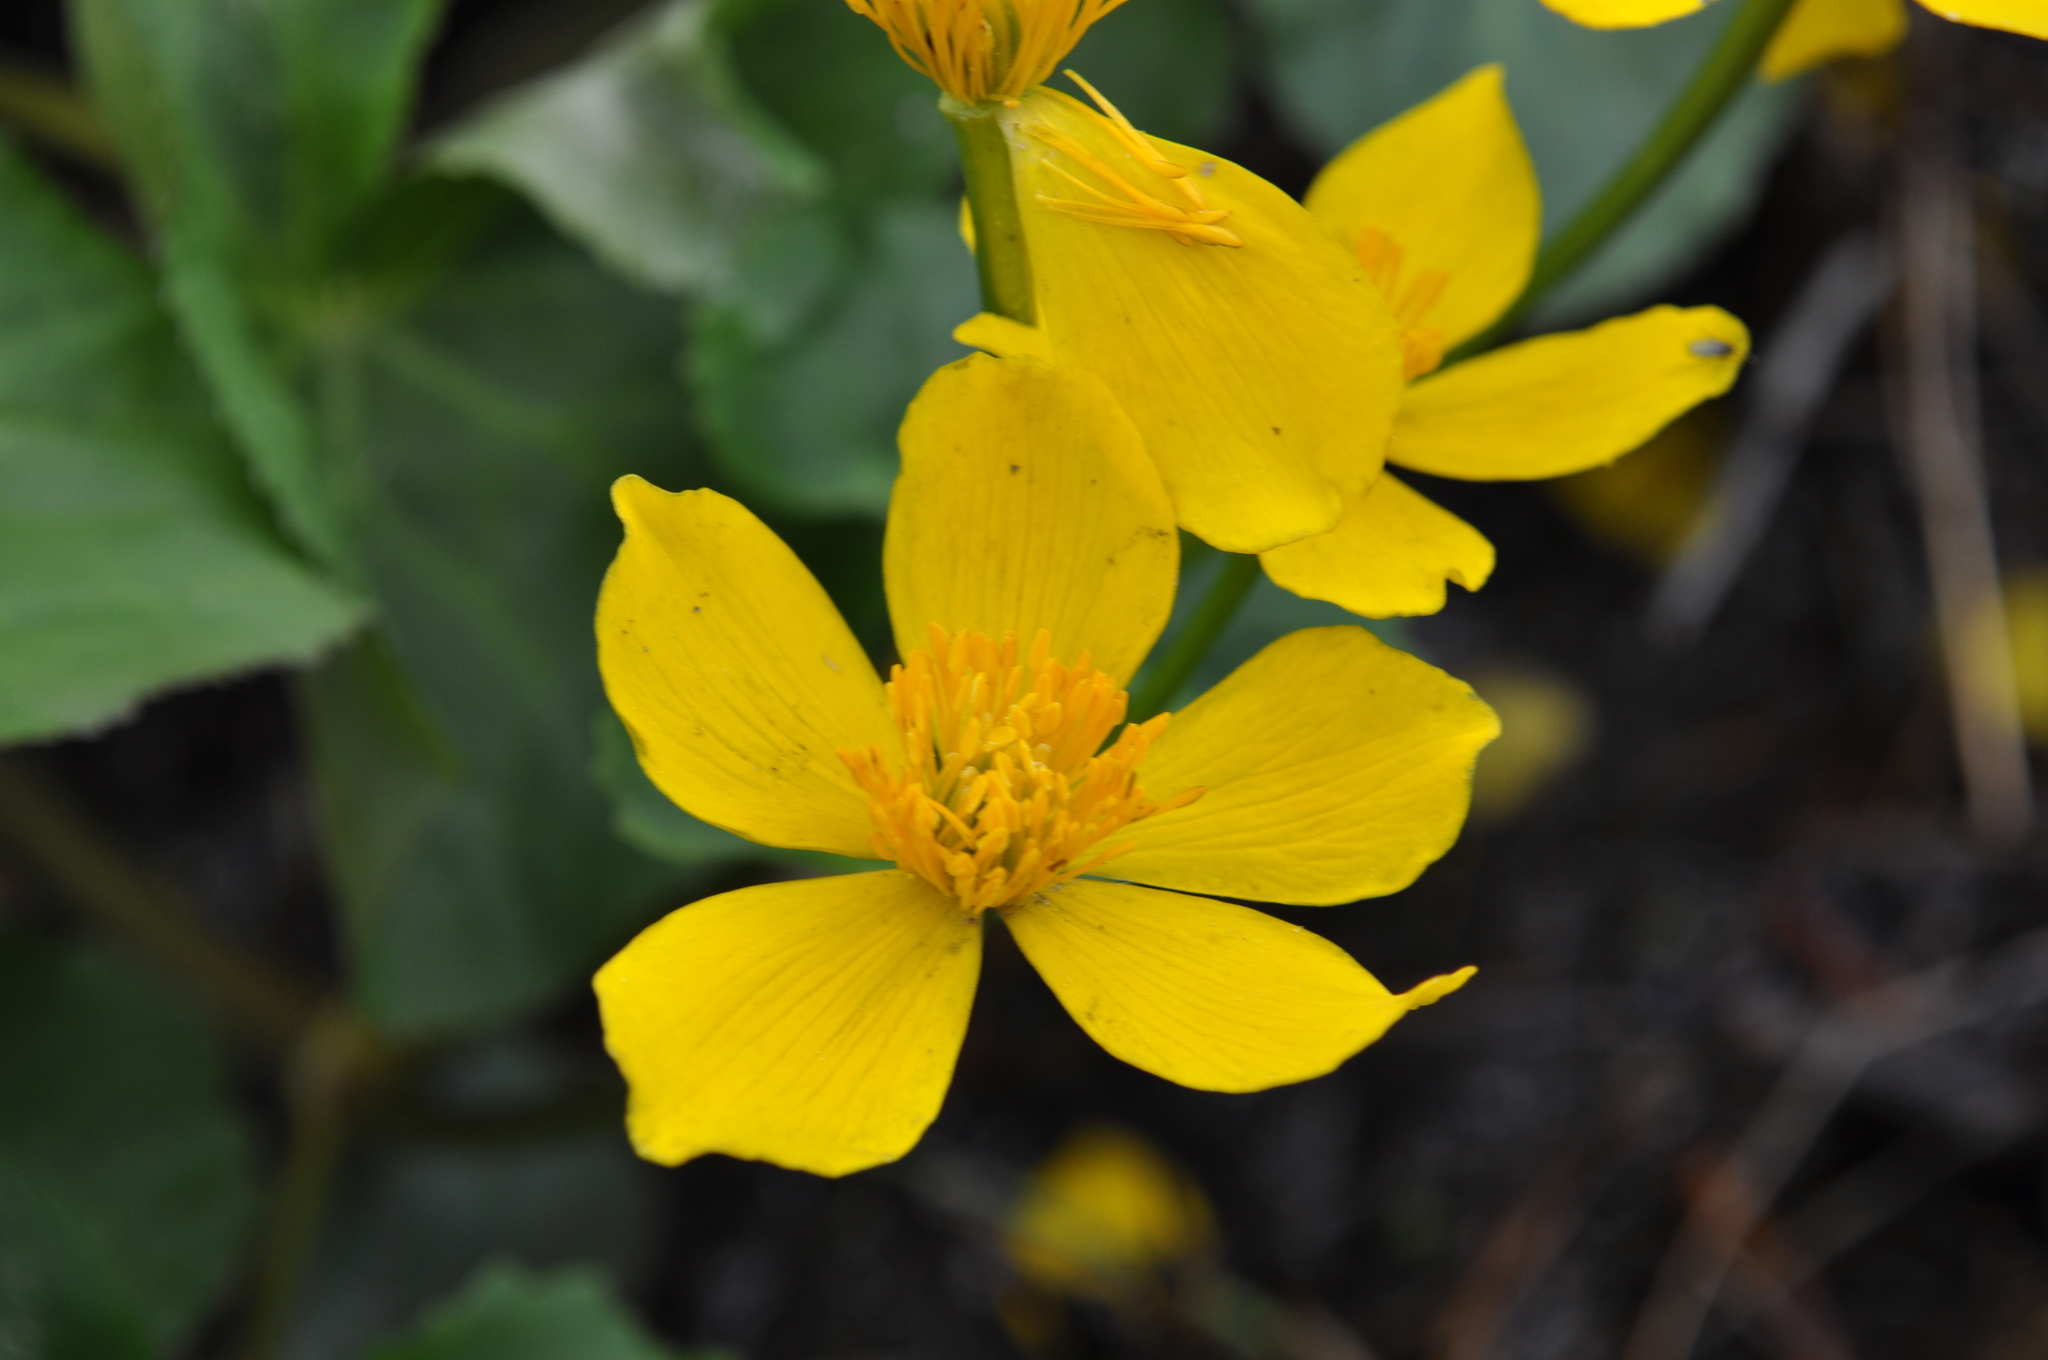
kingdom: Plantae
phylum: Tracheophyta
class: Magnoliopsida
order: Ranunculales
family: Ranunculaceae
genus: Caltha
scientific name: Caltha palustris
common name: Marsh marigold
